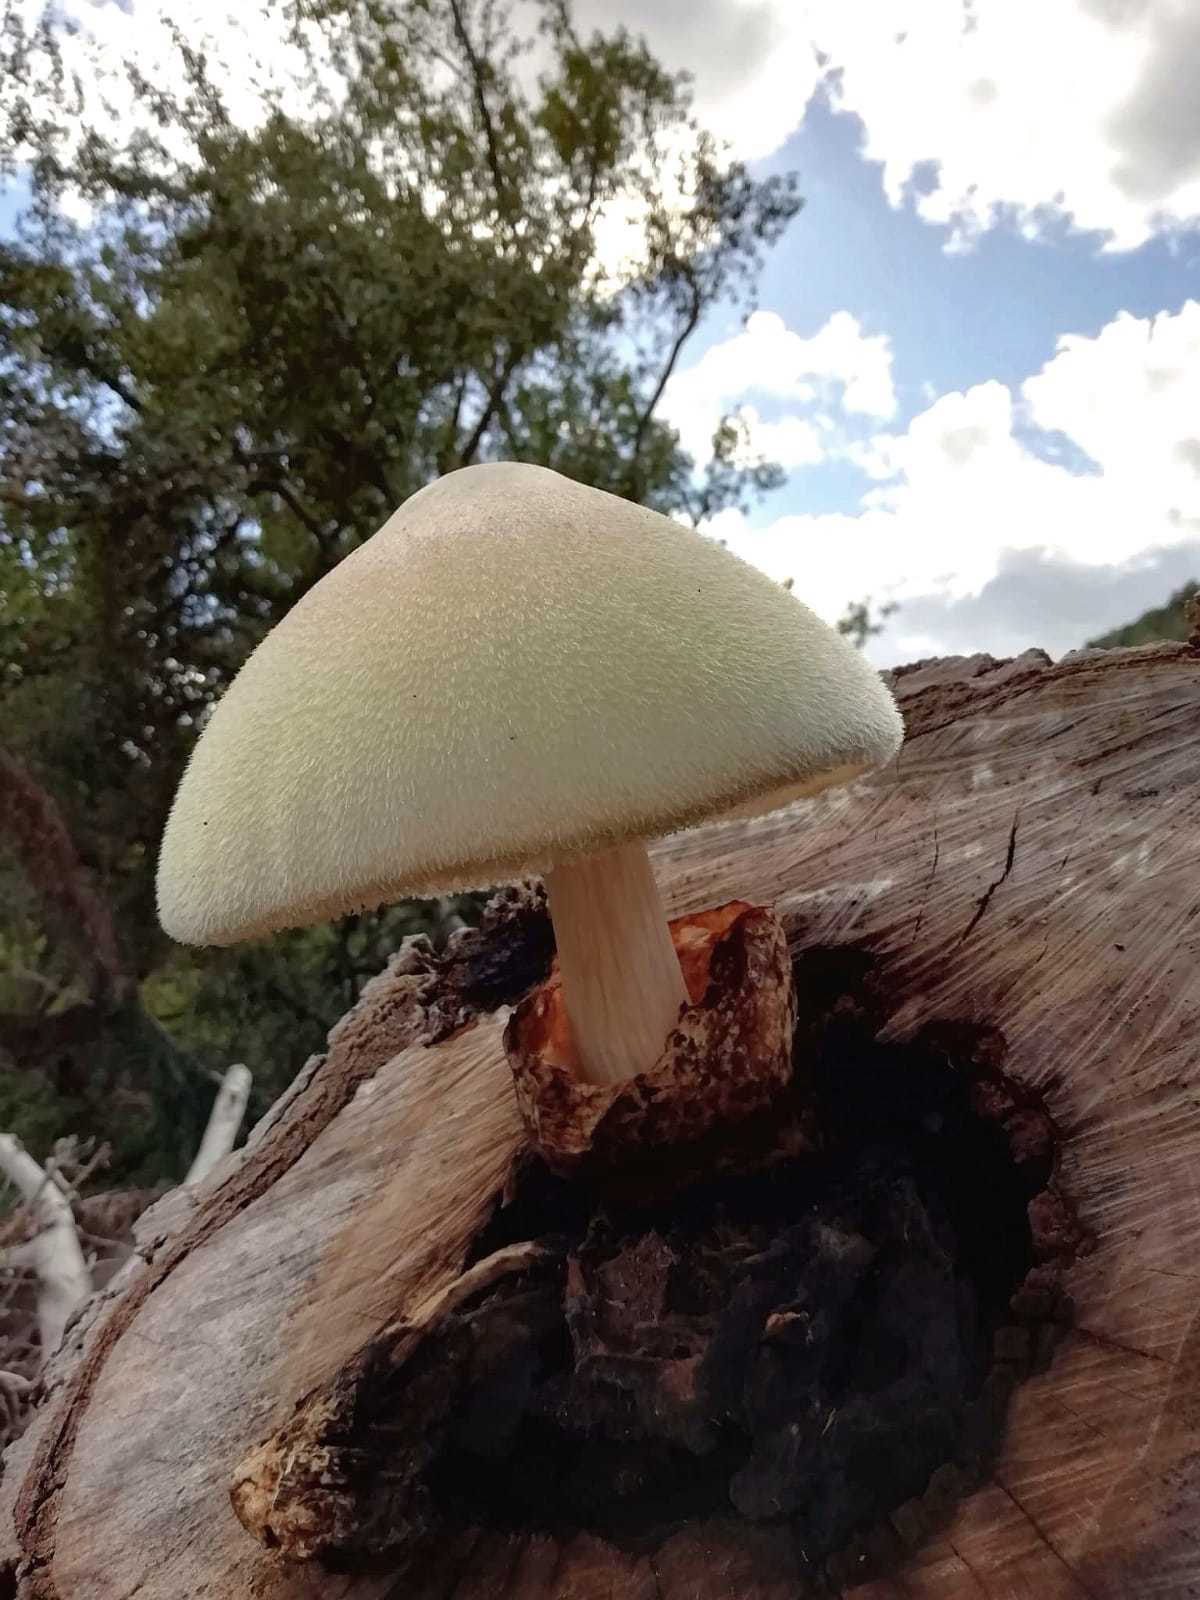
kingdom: Fungi
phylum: Basidiomycota
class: Agaricomycetes
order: Agaricales
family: Pluteaceae
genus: Volvariella
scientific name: Volvariella bombycina
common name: Silky rosegill
